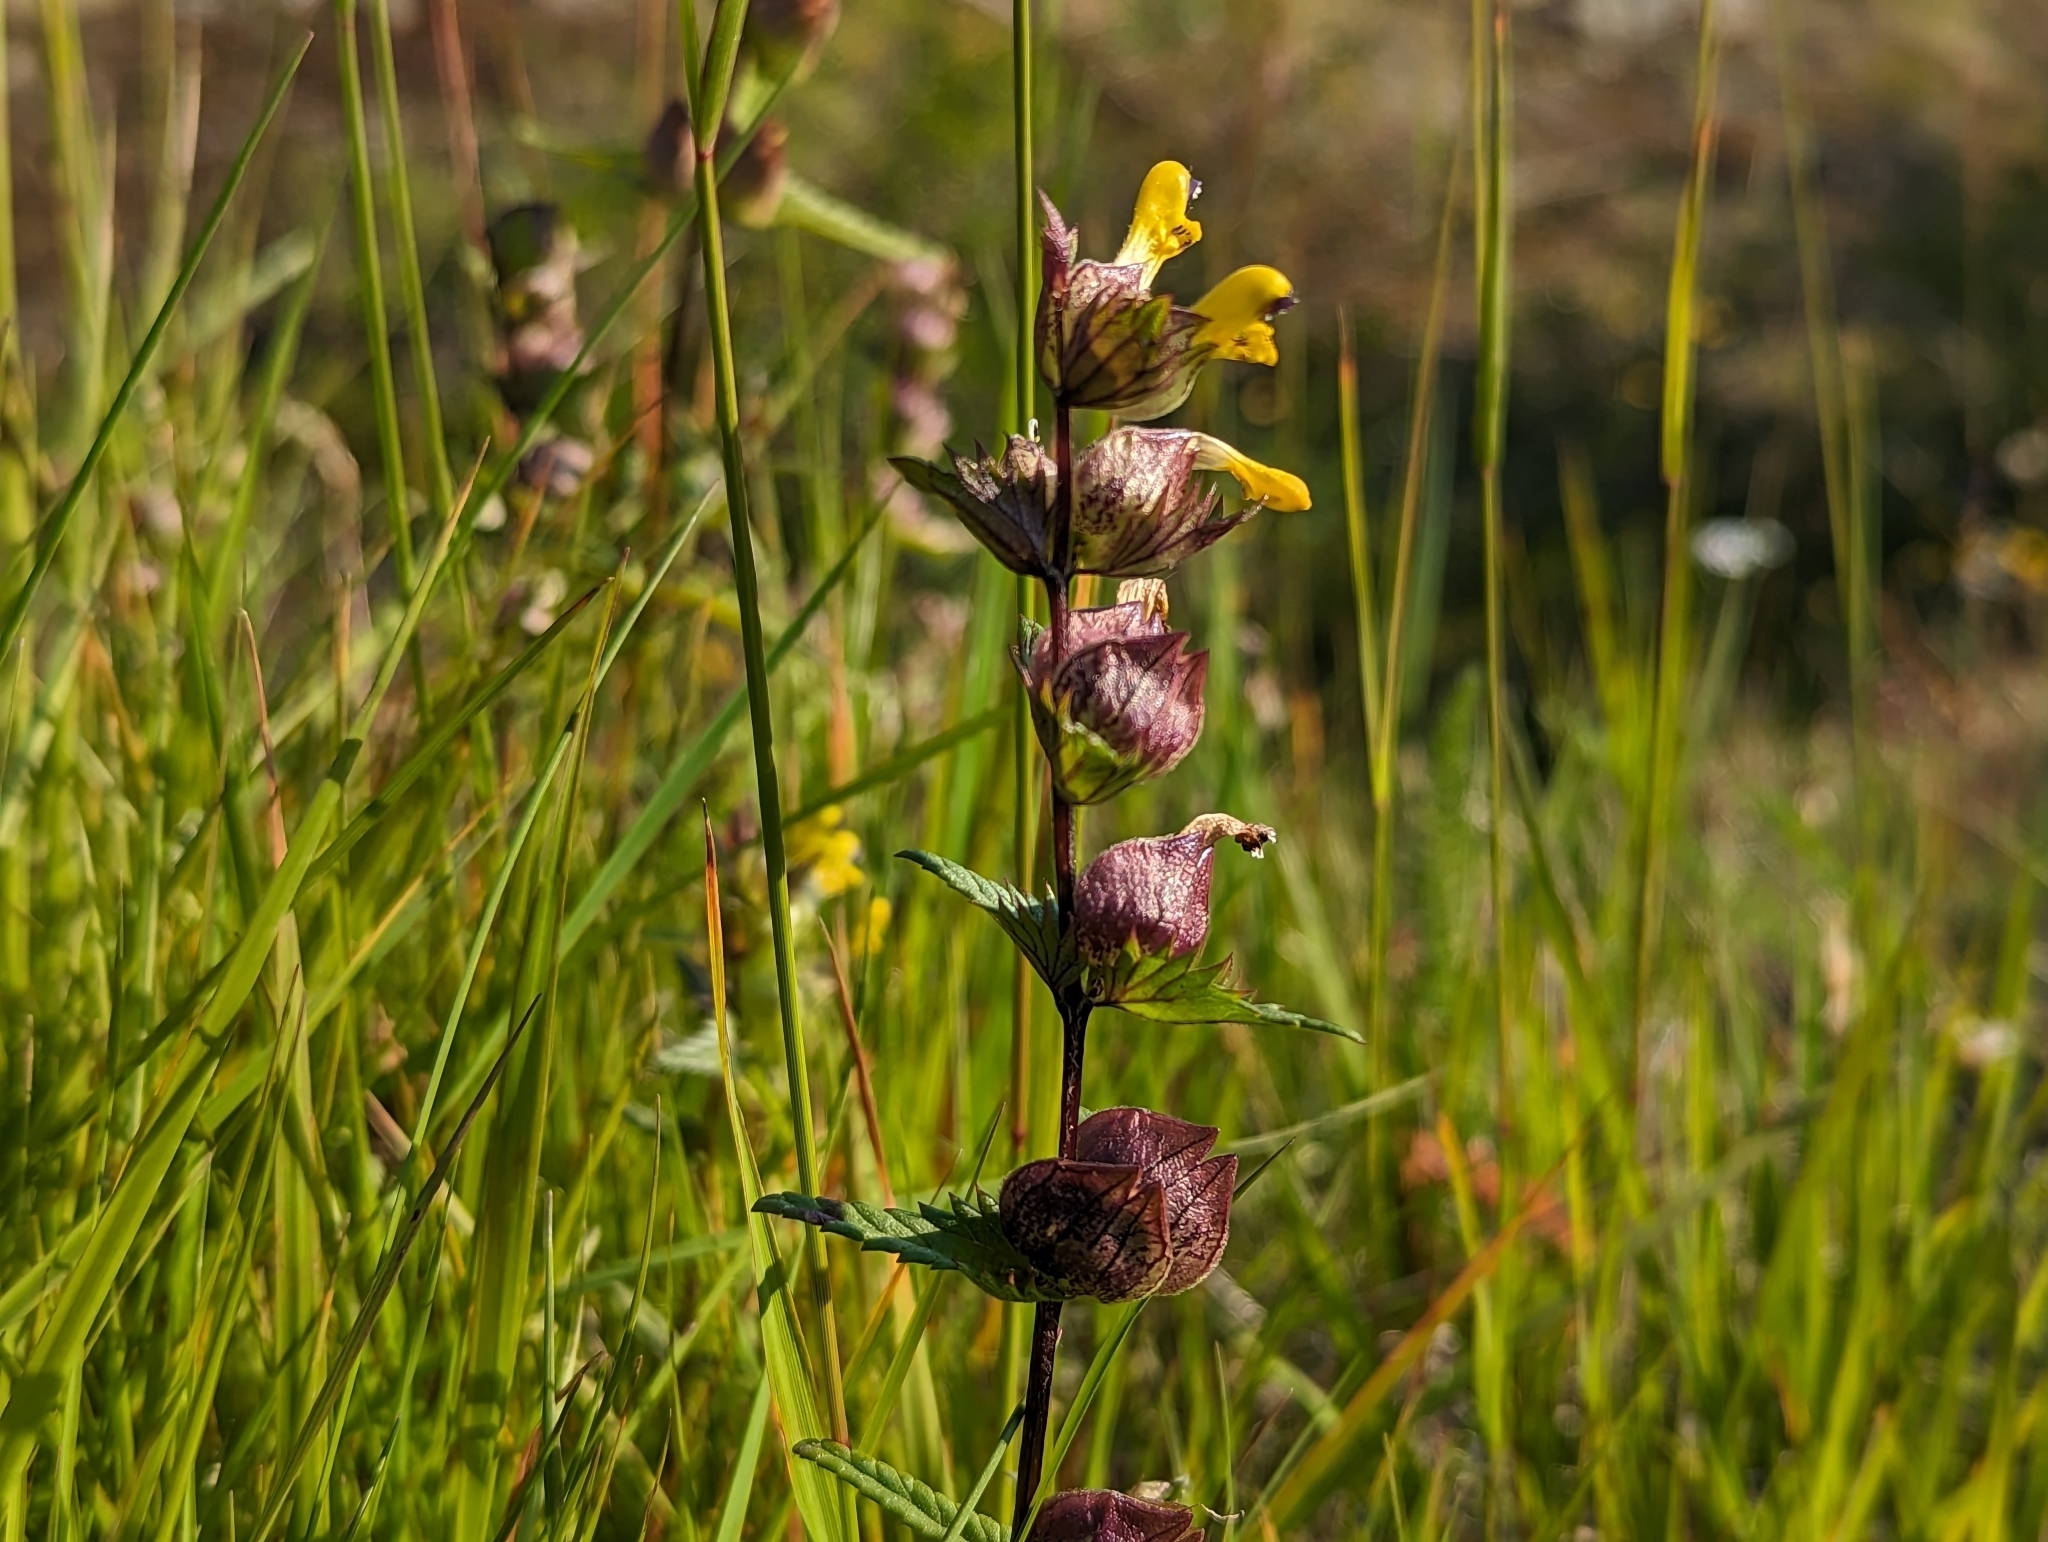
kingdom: Plantae
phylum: Tracheophyta
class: Magnoliopsida
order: Lamiales
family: Orobanchaceae
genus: Rhinanthus
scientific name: Rhinanthus minor
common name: Yellow-rattle
